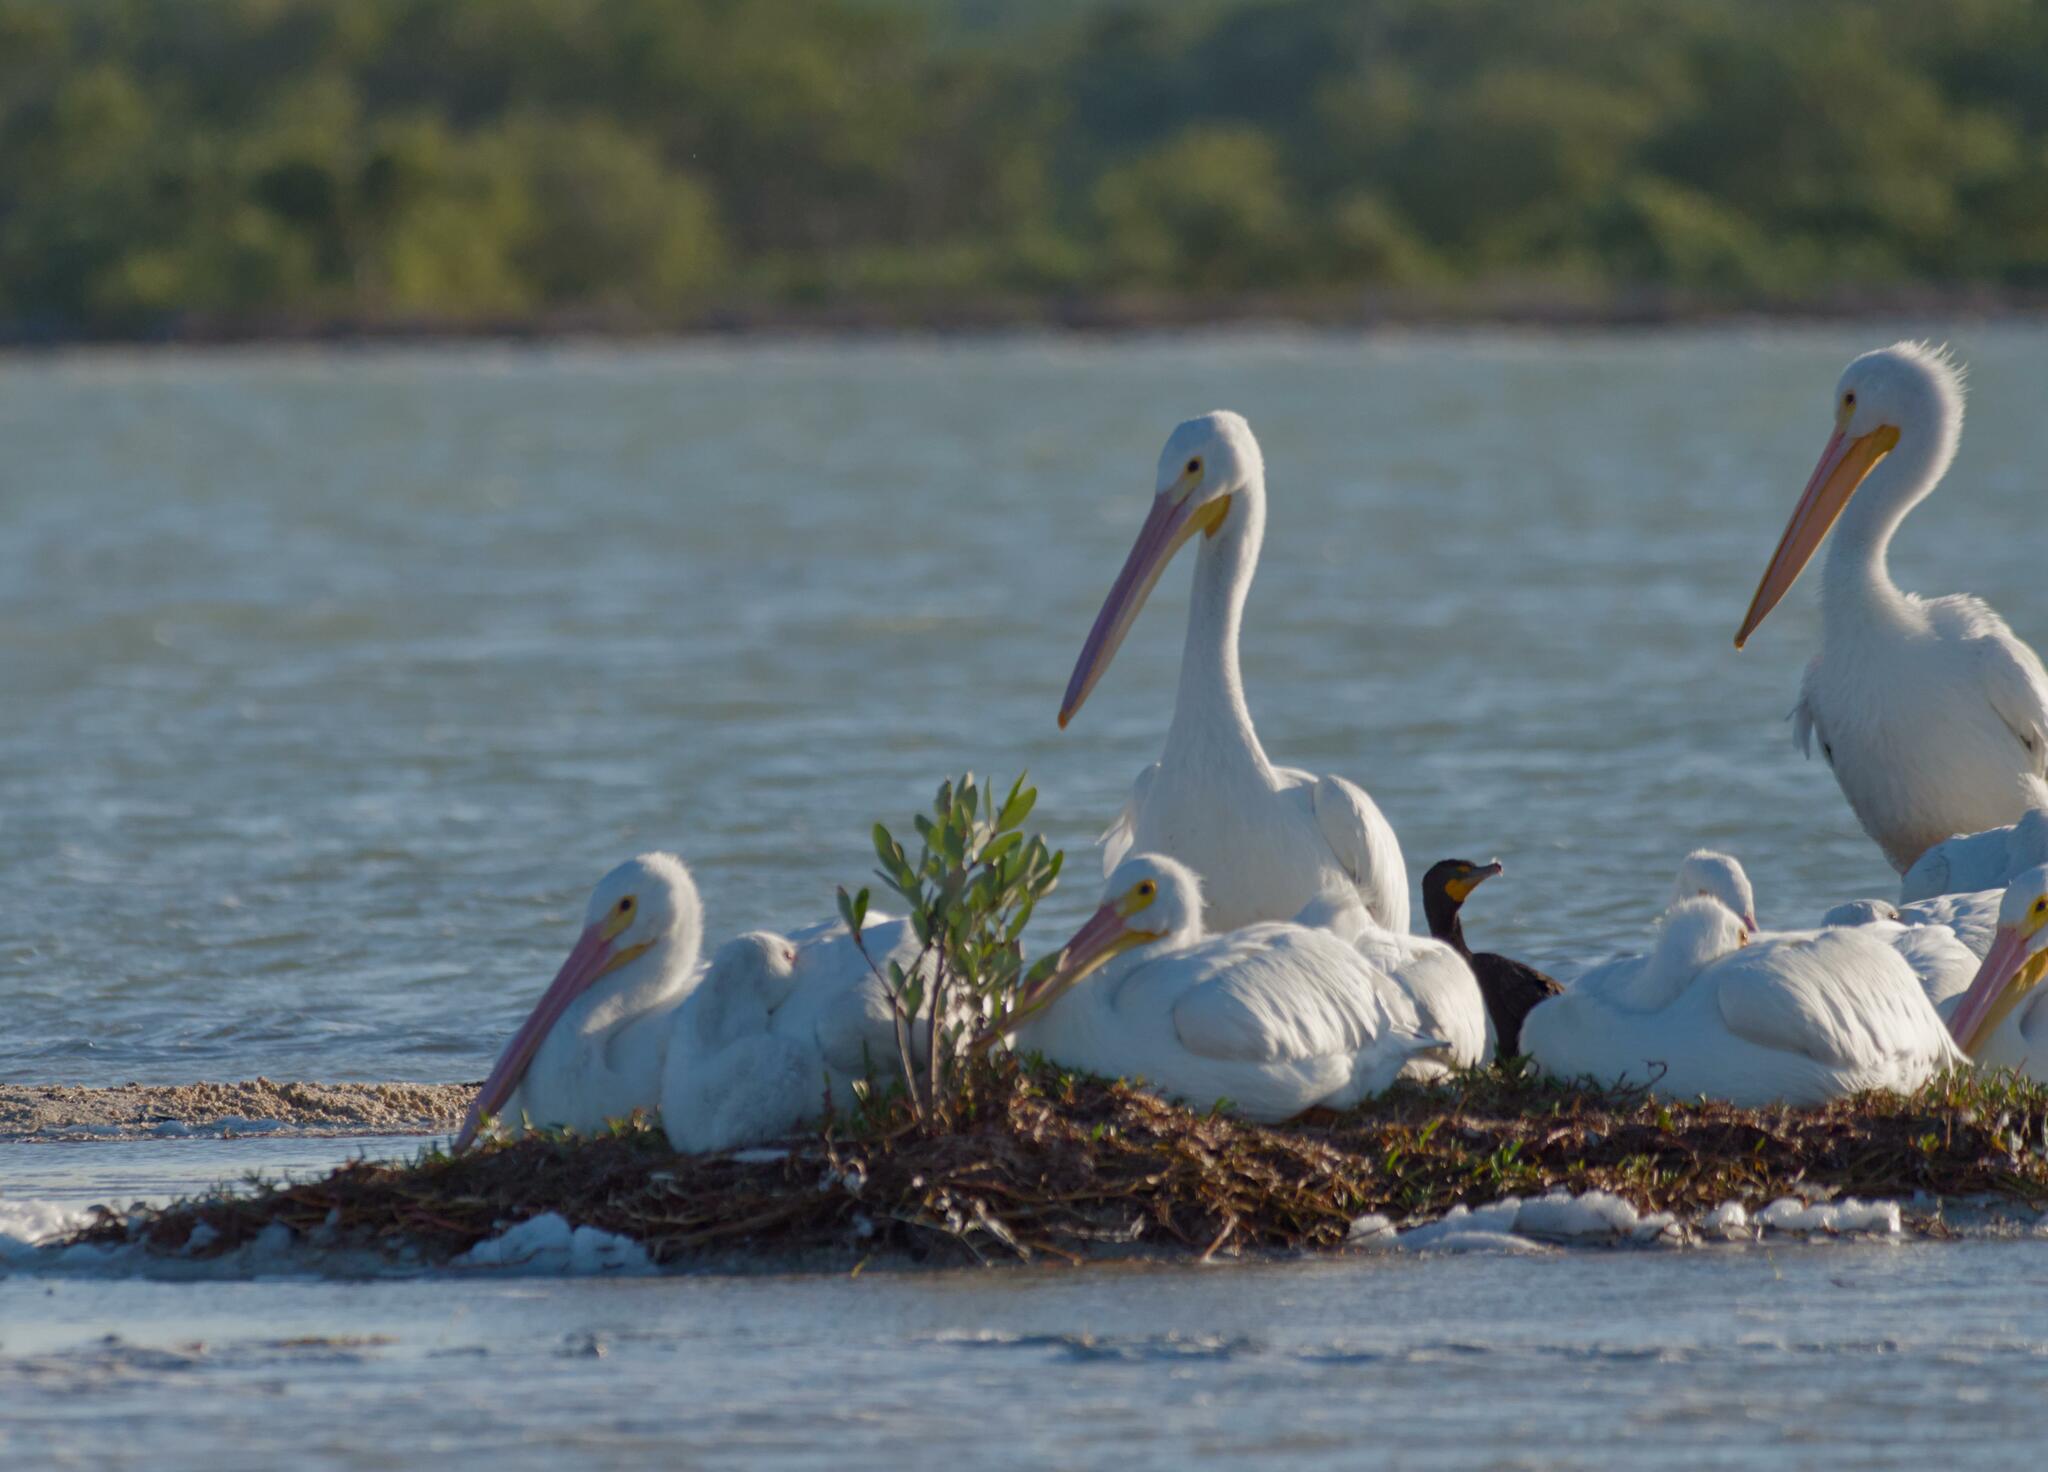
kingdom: Animalia
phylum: Chordata
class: Aves
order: Pelecaniformes
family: Pelecanidae
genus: Pelecanus
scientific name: Pelecanus erythrorhynchos
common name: American white pelican
